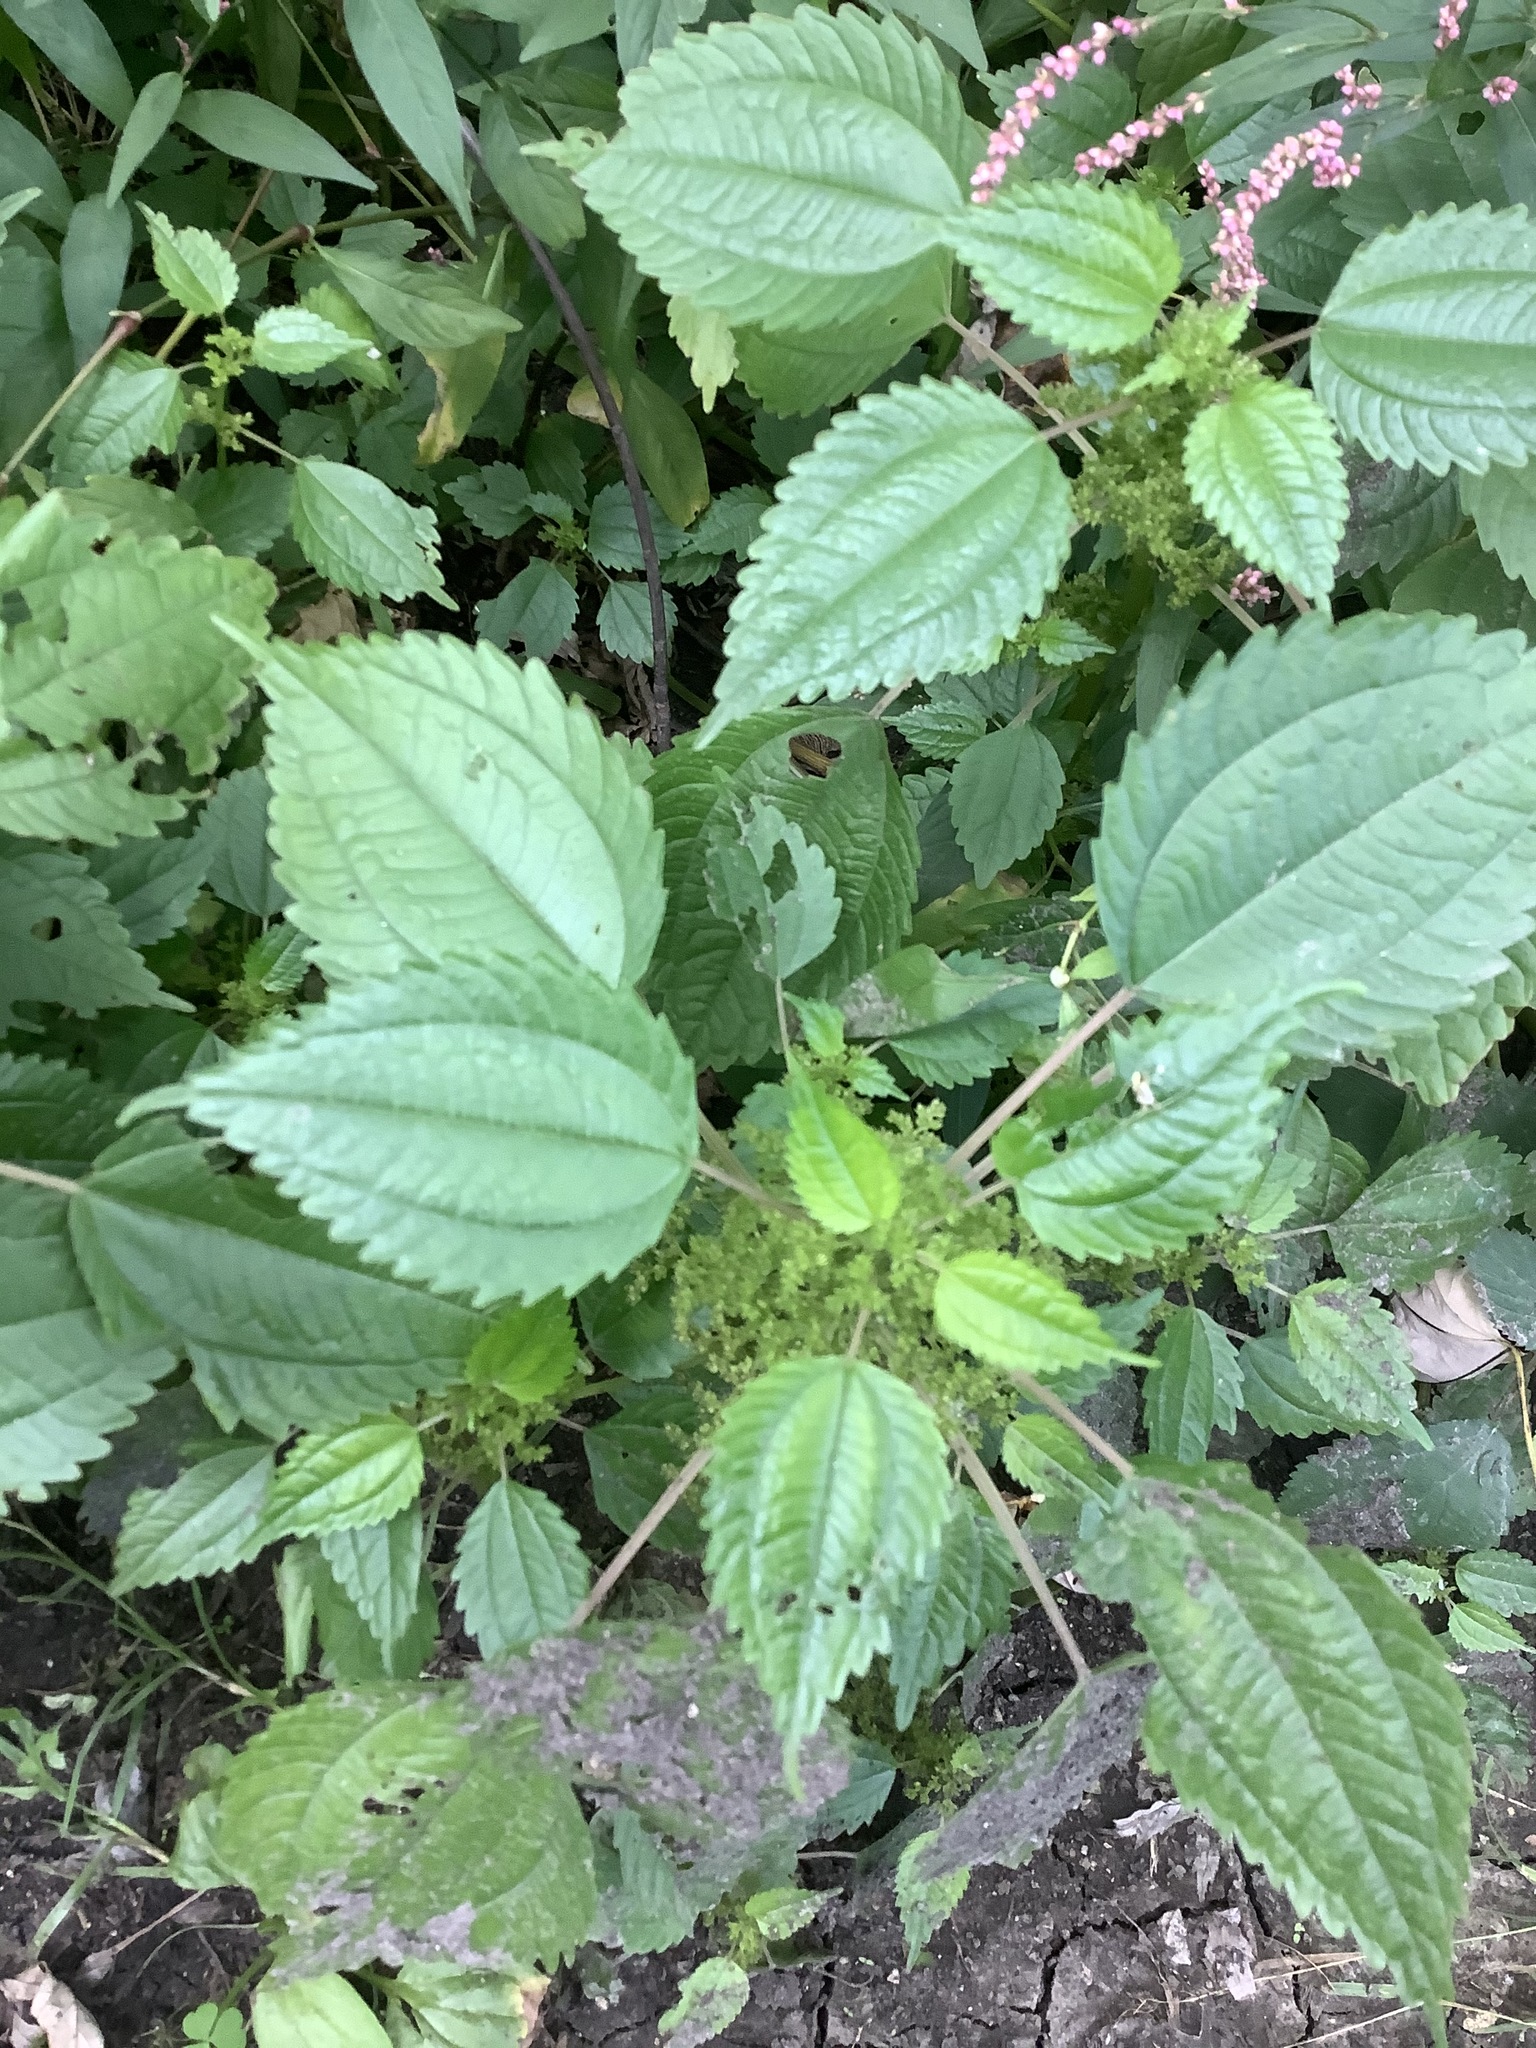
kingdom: Plantae
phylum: Tracheophyta
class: Magnoliopsida
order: Rosales
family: Urticaceae
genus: Pilea
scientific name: Pilea pumila
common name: Clearweed
